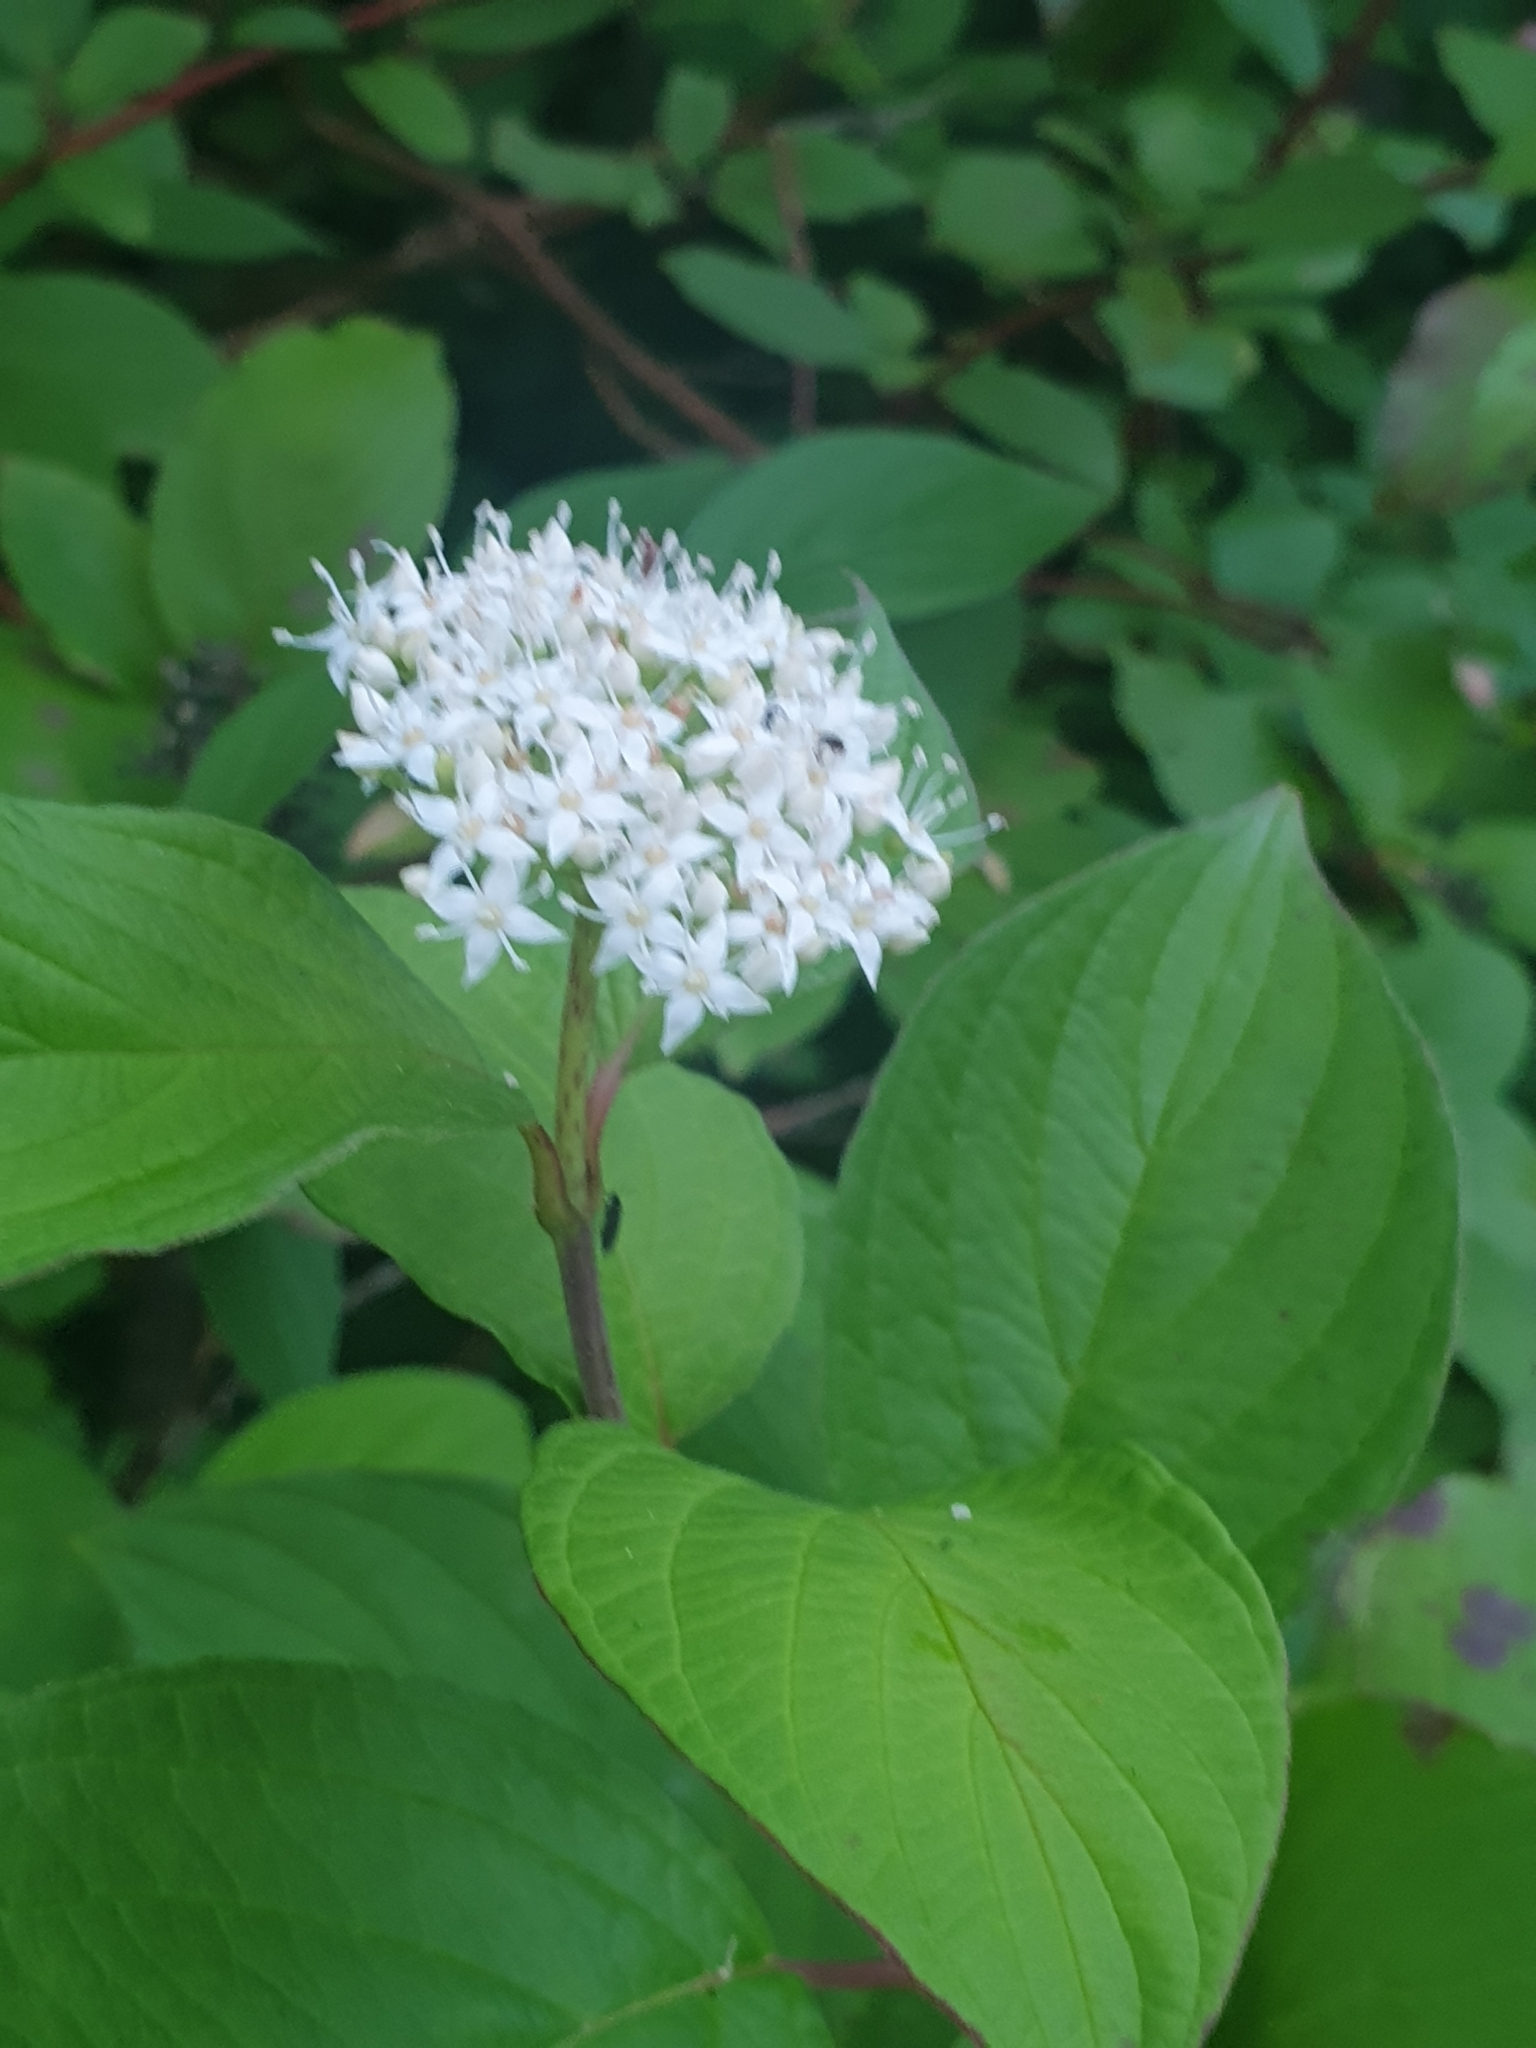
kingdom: Plantae
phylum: Tracheophyta
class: Magnoliopsida
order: Cornales
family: Cornaceae
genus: Cornus
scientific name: Cornus alba
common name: White dogwood
